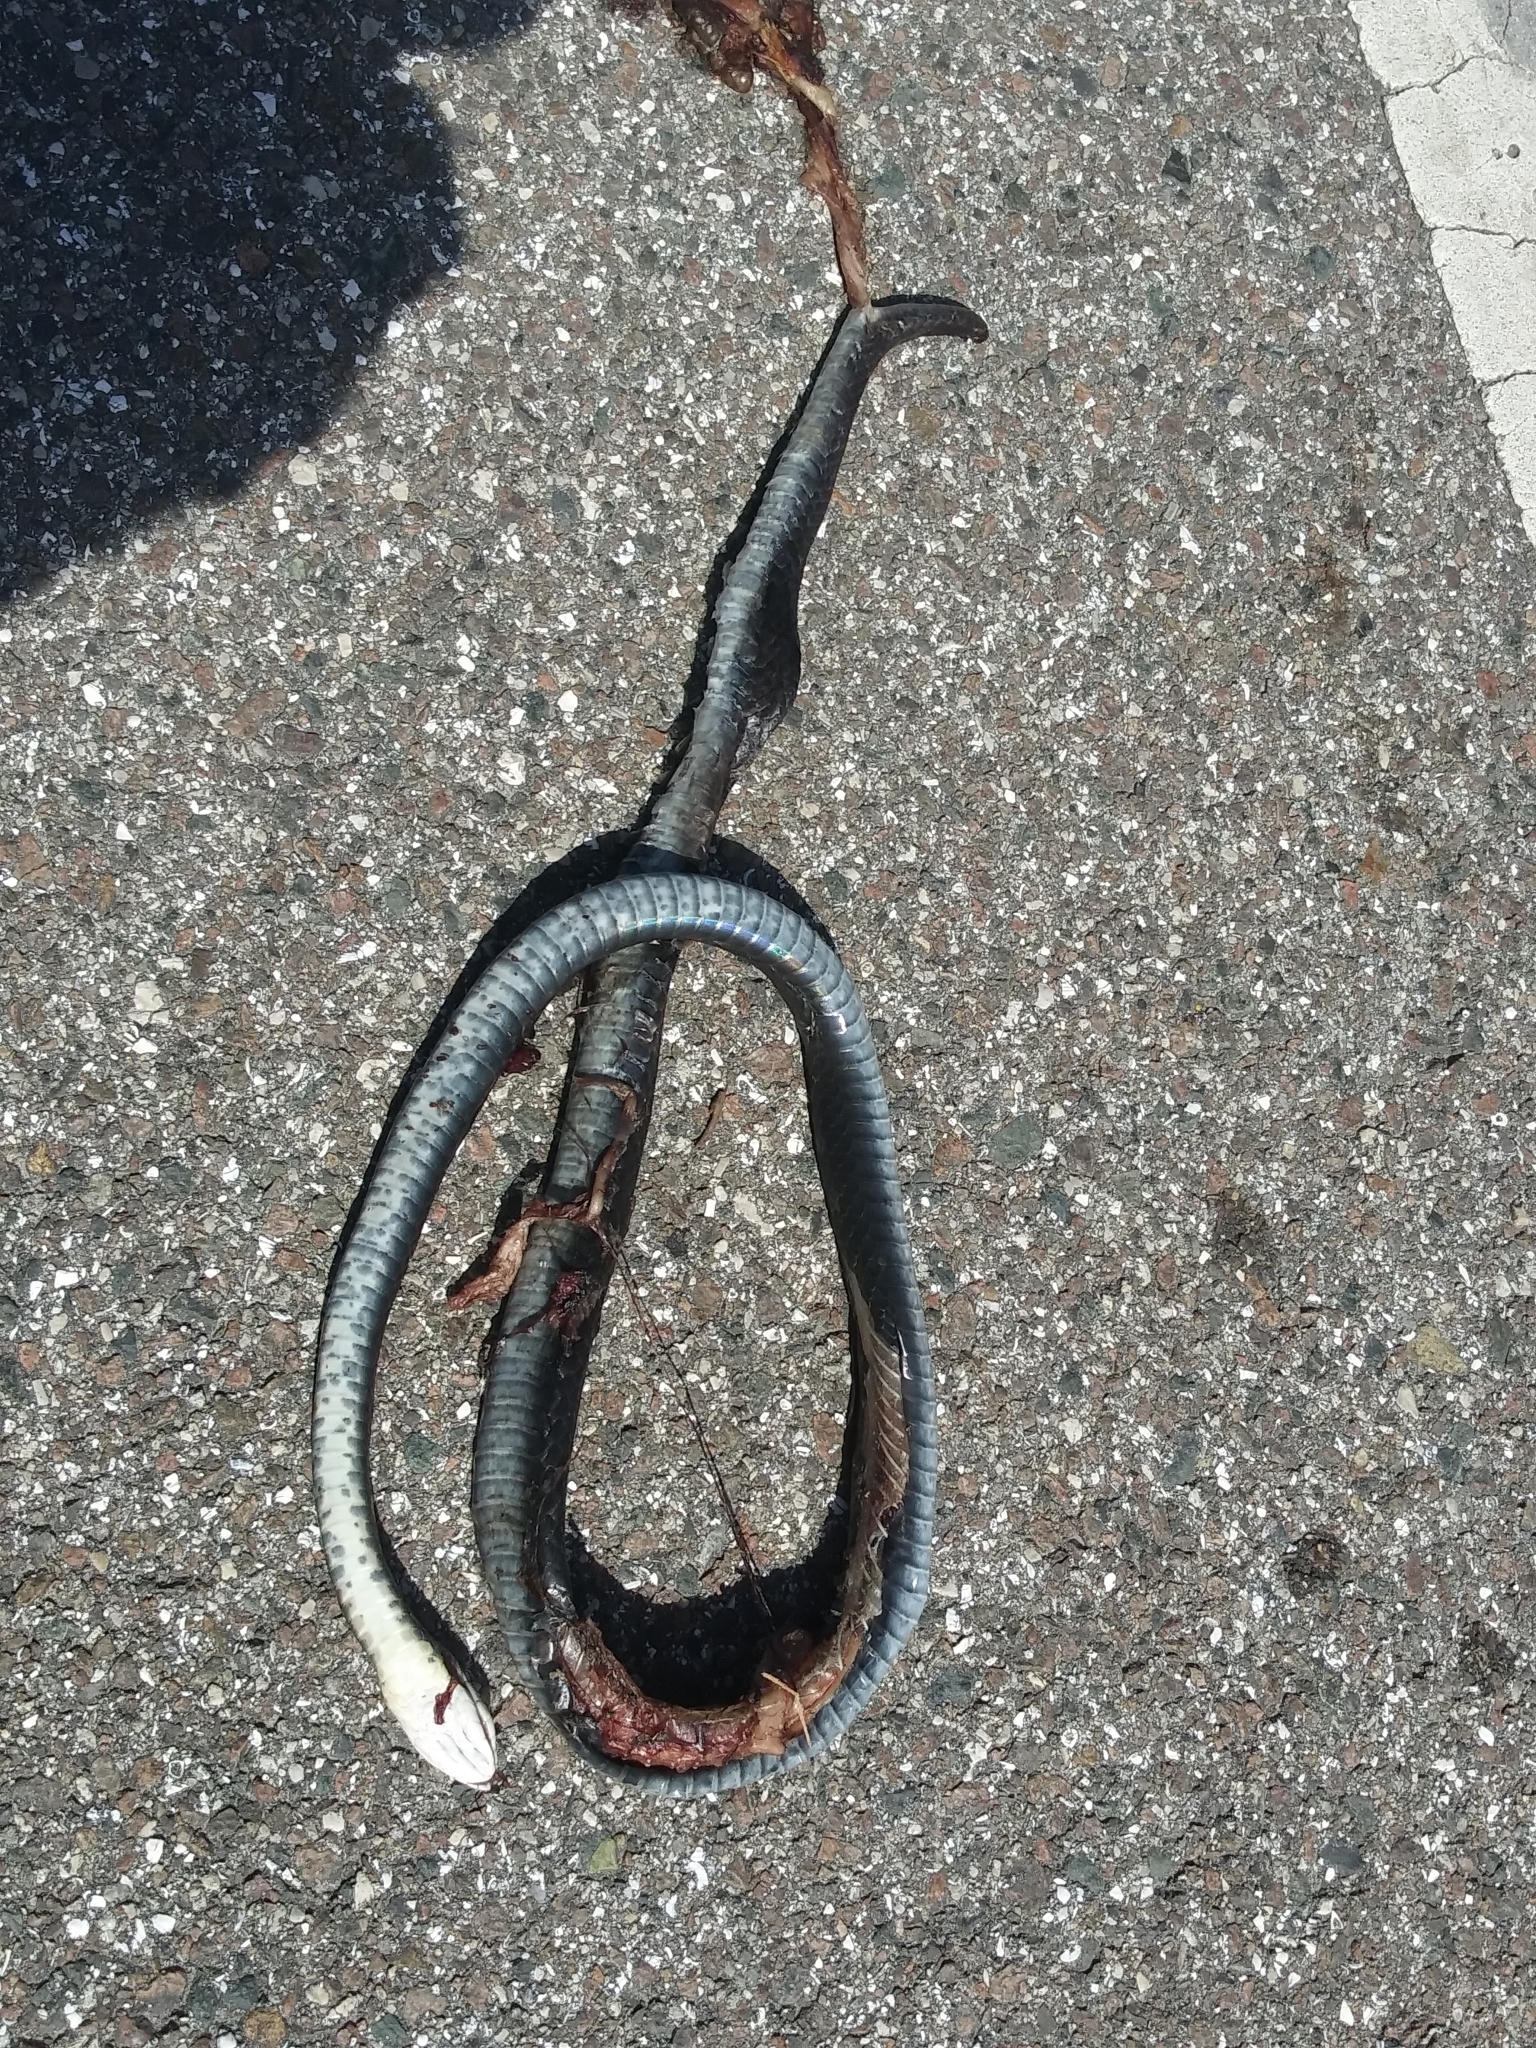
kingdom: Animalia
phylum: Chordata
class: Squamata
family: Colubridae
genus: Coluber
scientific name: Coluber constrictor
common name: Eastern racer
